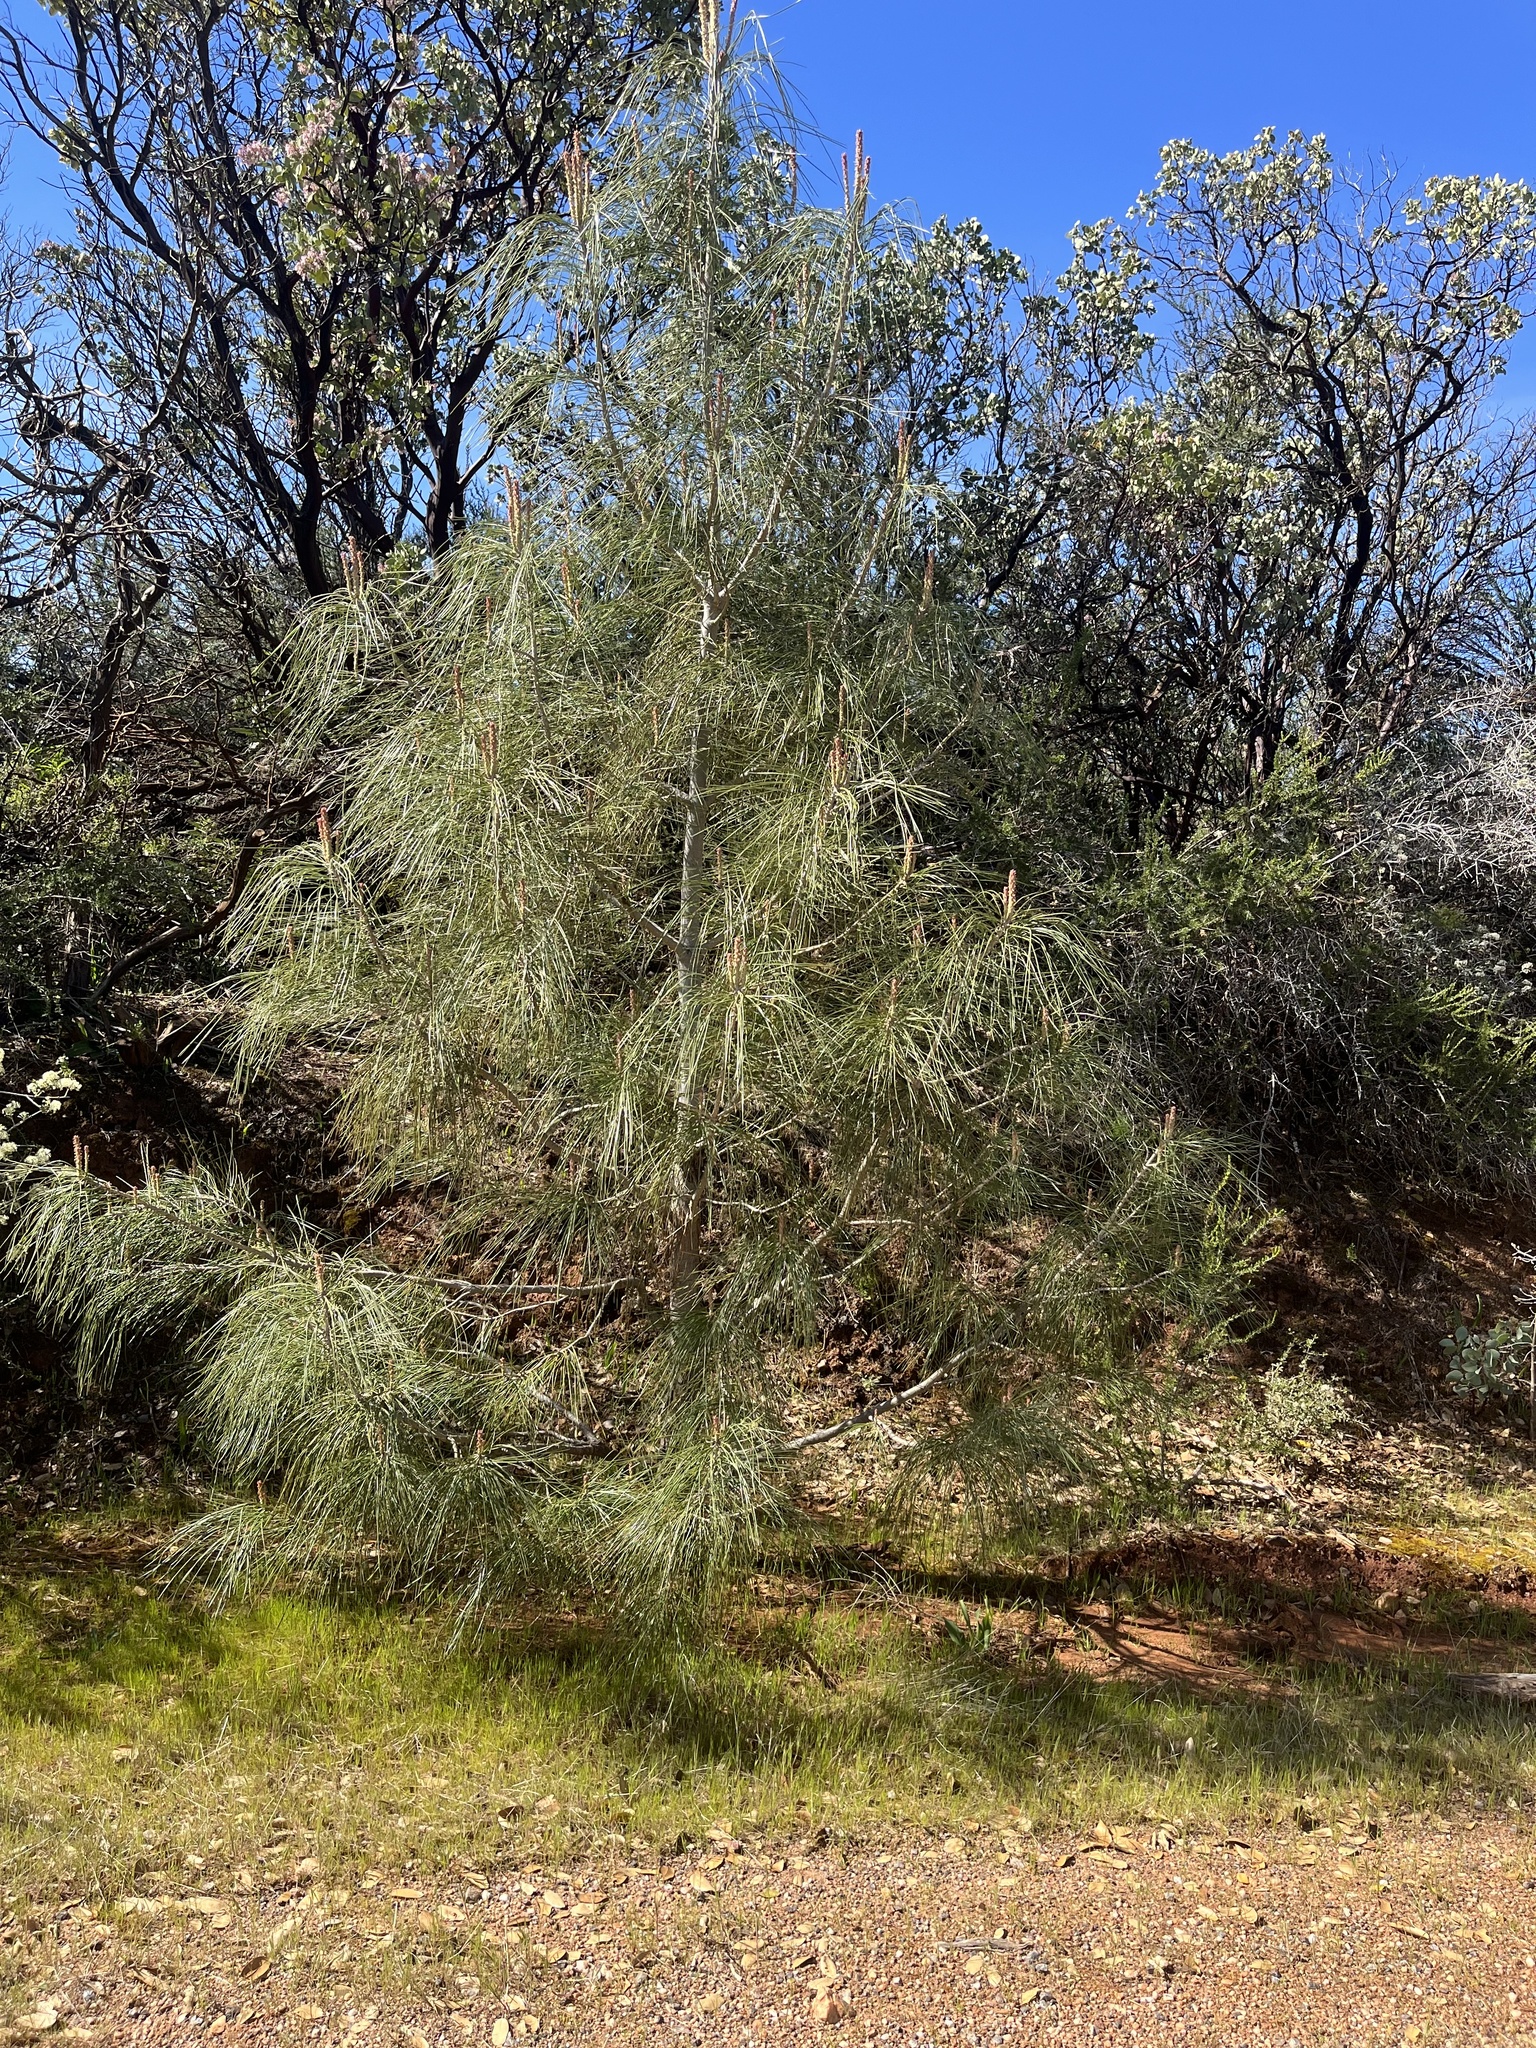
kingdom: Plantae
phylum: Tracheophyta
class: Pinopsida
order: Pinales
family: Pinaceae
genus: Pinus
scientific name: Pinus sabiniana
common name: Bull pine
